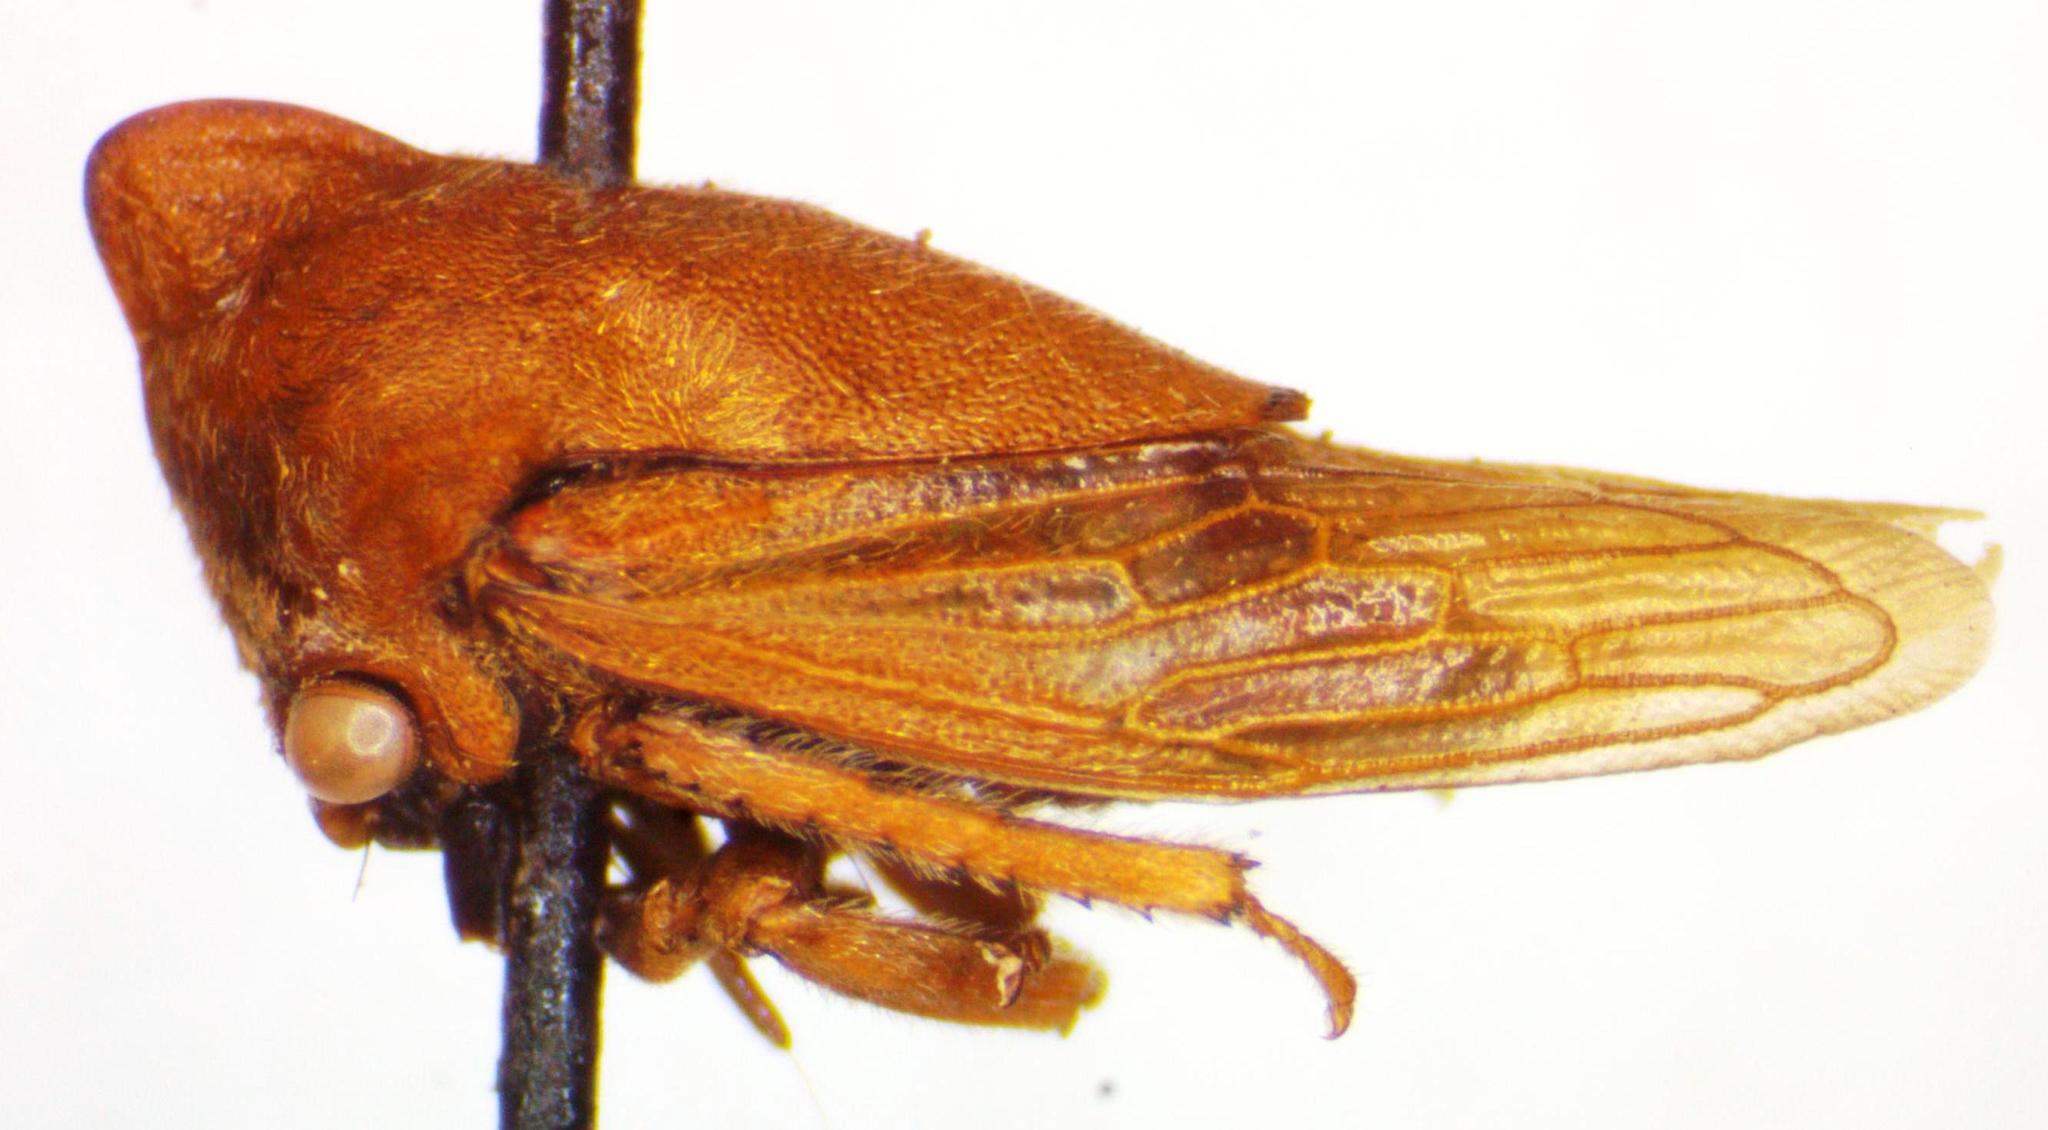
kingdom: Animalia
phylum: Arthropoda
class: Insecta
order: Hemiptera
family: Membracidae
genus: Guayaquila
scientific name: Guayaquila obesa
